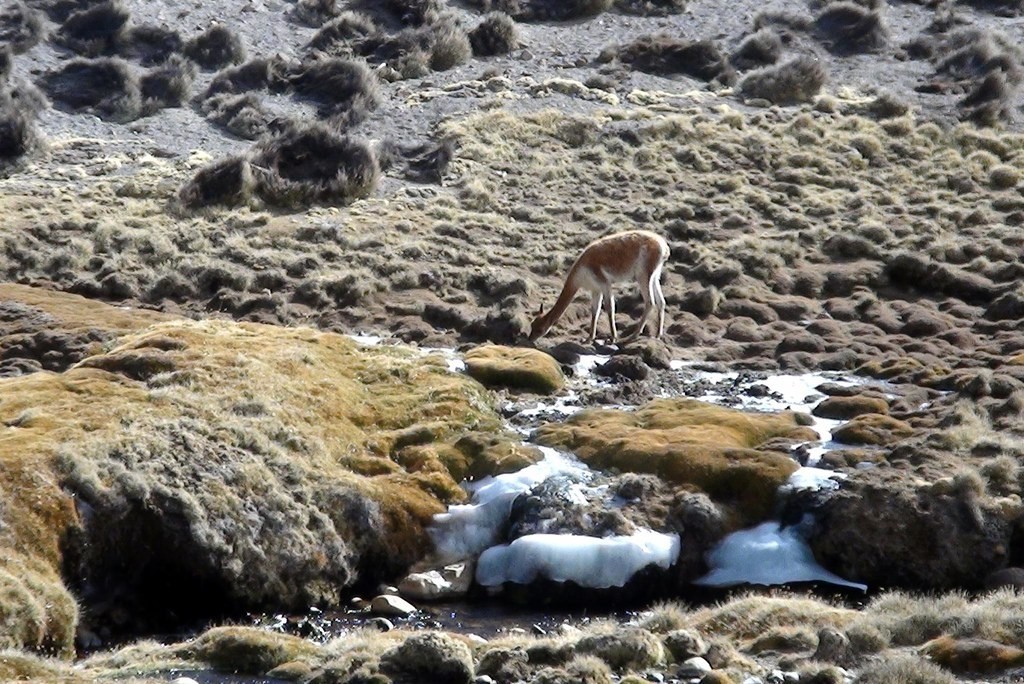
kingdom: Animalia
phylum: Chordata
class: Mammalia
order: Artiodactyla
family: Camelidae
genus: Vicugna
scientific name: Vicugna vicugna
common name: Vicugna
